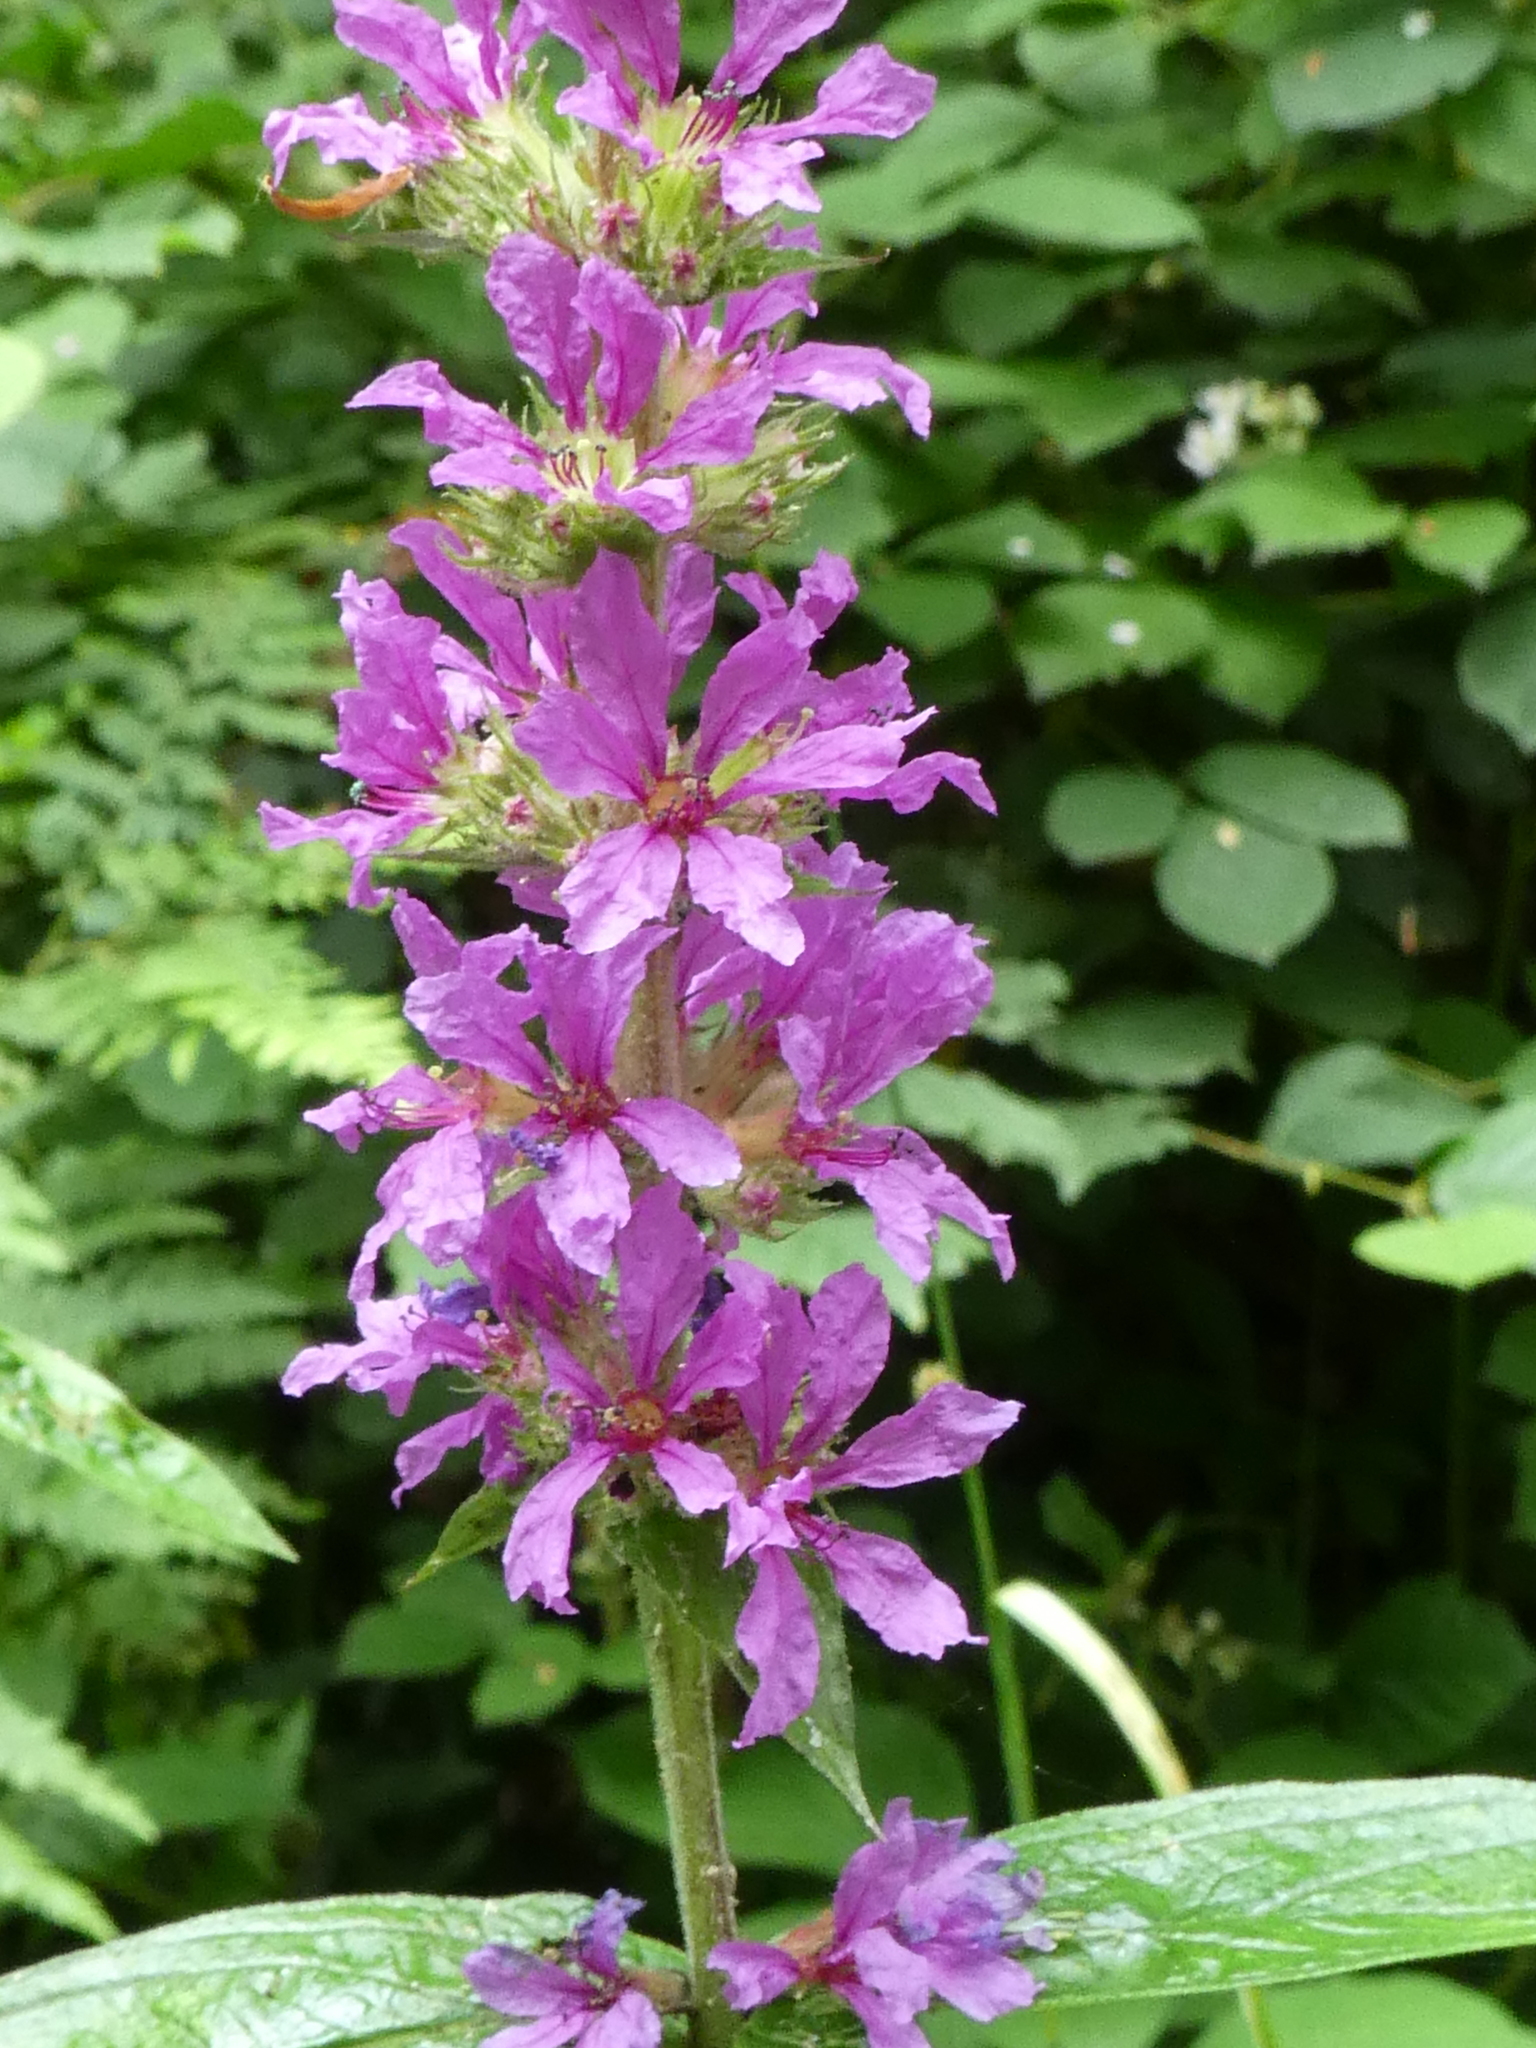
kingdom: Plantae
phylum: Tracheophyta
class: Magnoliopsida
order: Myrtales
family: Lythraceae
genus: Lythrum
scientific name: Lythrum salicaria
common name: Purple loosestrife
